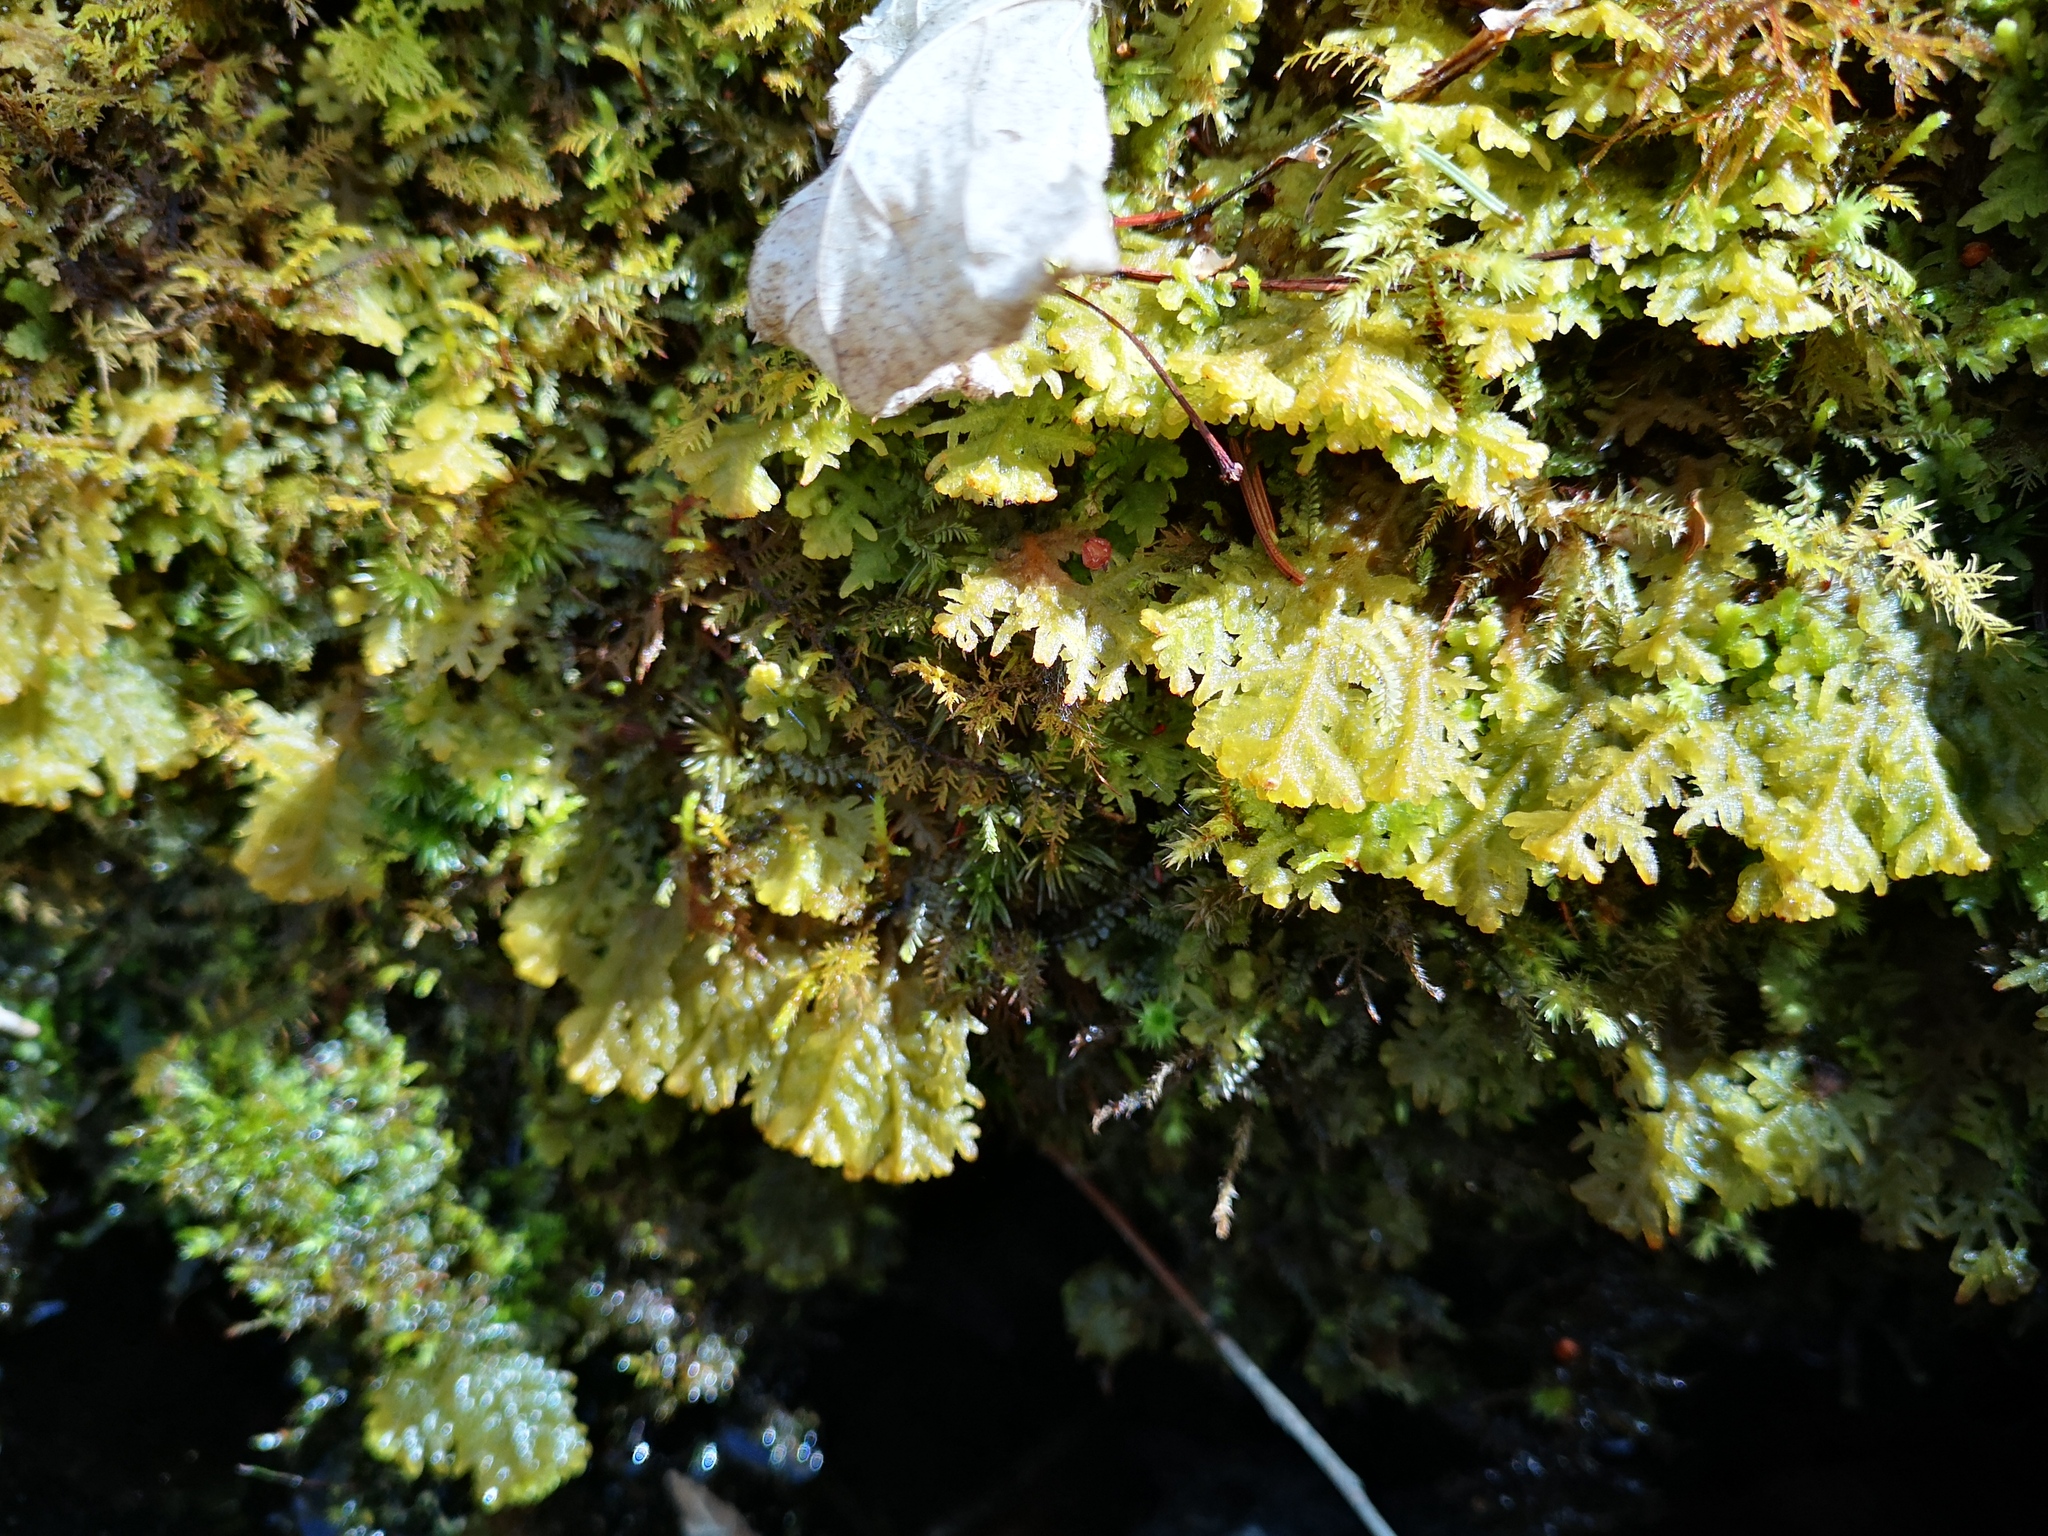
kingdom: Plantae
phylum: Marchantiophyta
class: Jungermanniopsida
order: Jungermanniales
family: Trichocoleaceae
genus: Trichocolea
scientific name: Trichocolea tomentella
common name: Woolly liverwort
